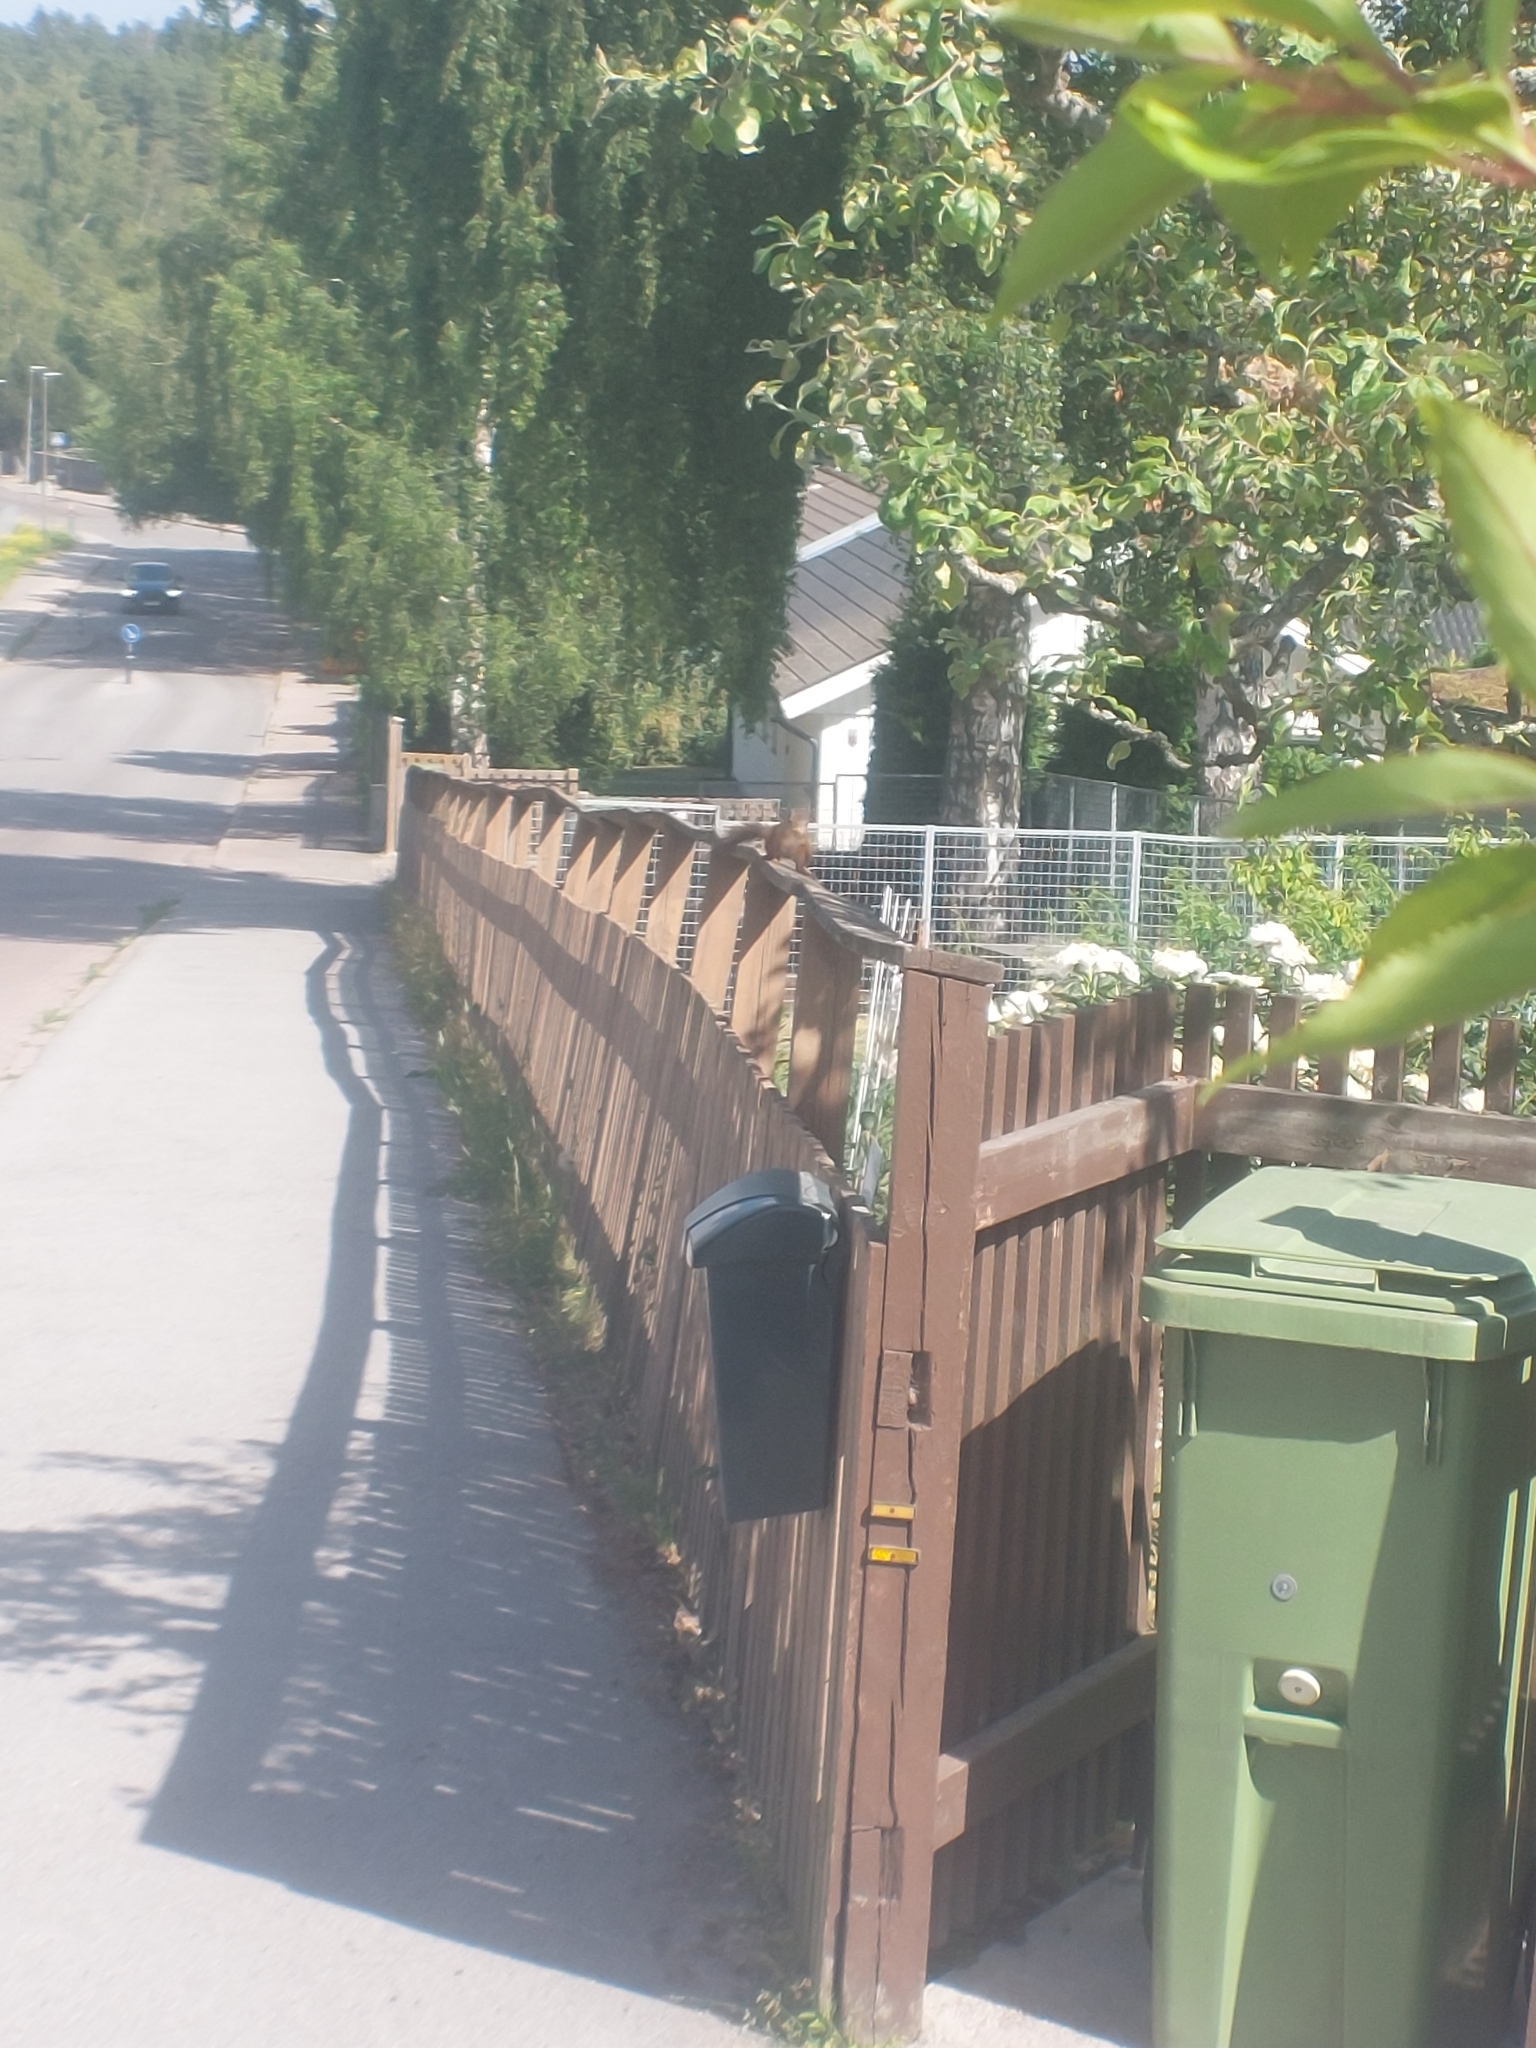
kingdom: Animalia
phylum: Chordata
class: Mammalia
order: Rodentia
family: Sciuridae
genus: Sciurus
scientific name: Sciurus vulgaris
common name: Eurasian red squirrel
